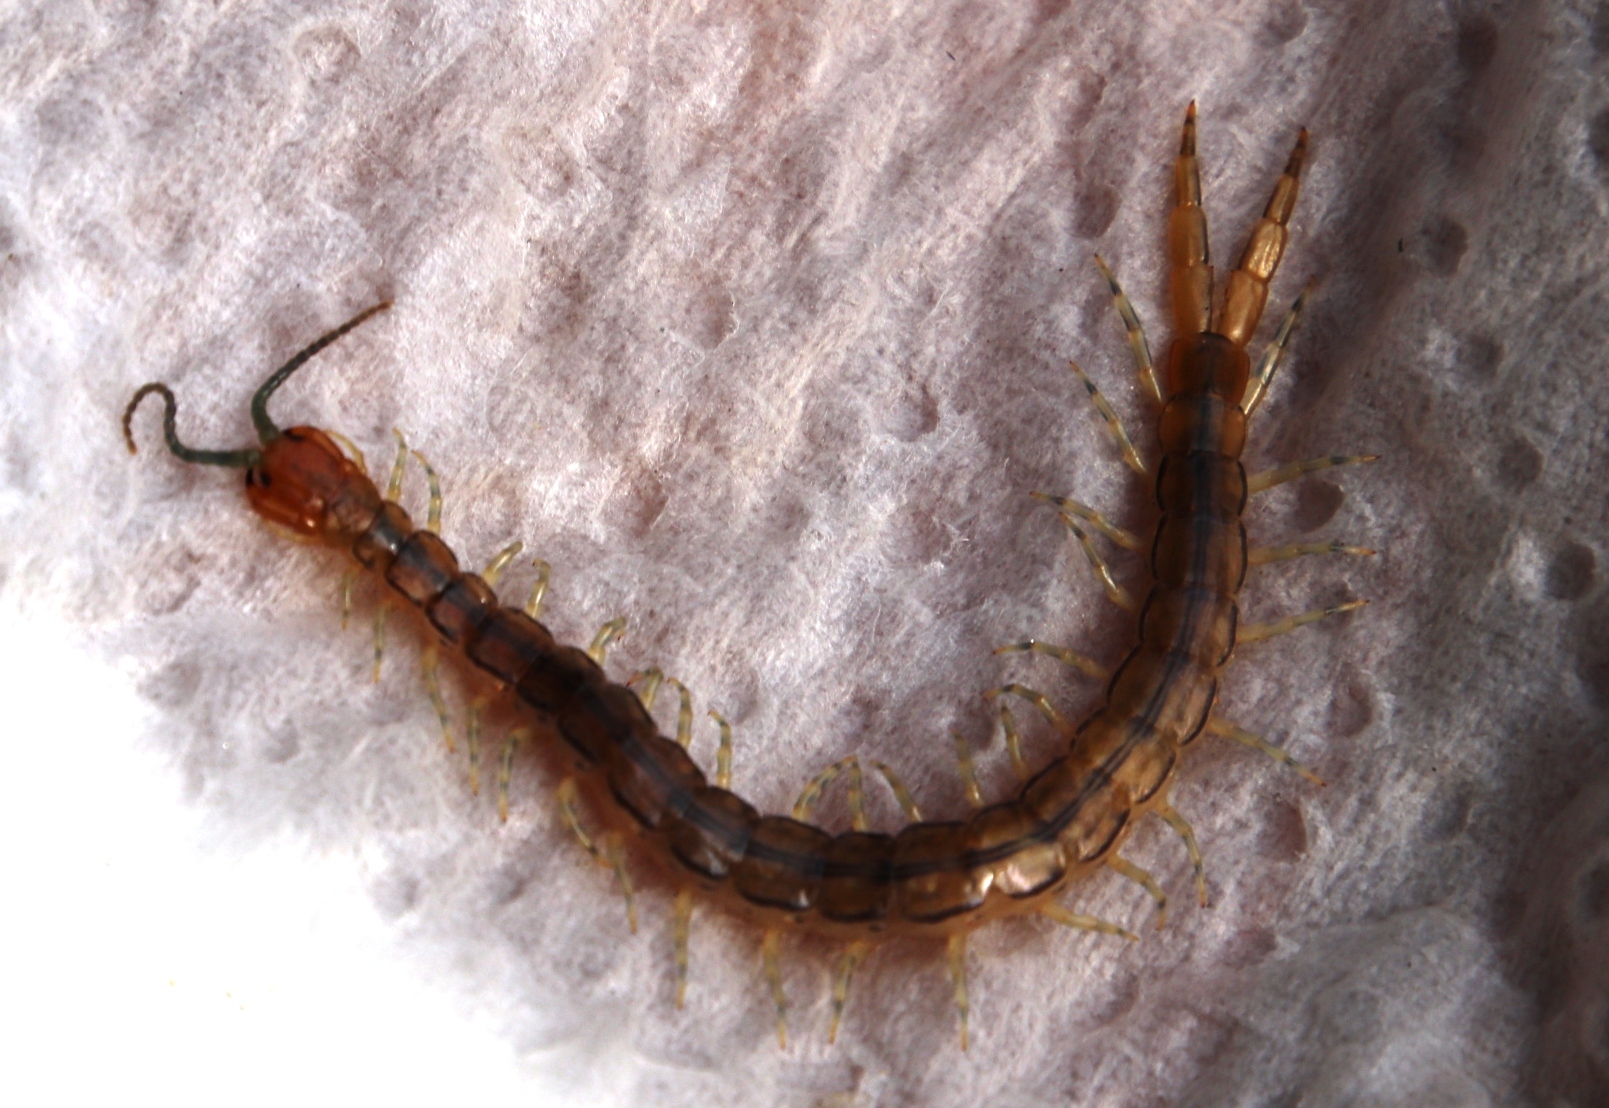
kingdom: Animalia
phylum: Arthropoda
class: Chilopoda
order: Scolopendromorpha
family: Scolopendridae
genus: Arthrorhabdus
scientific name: Arthrorhabdus formosus
